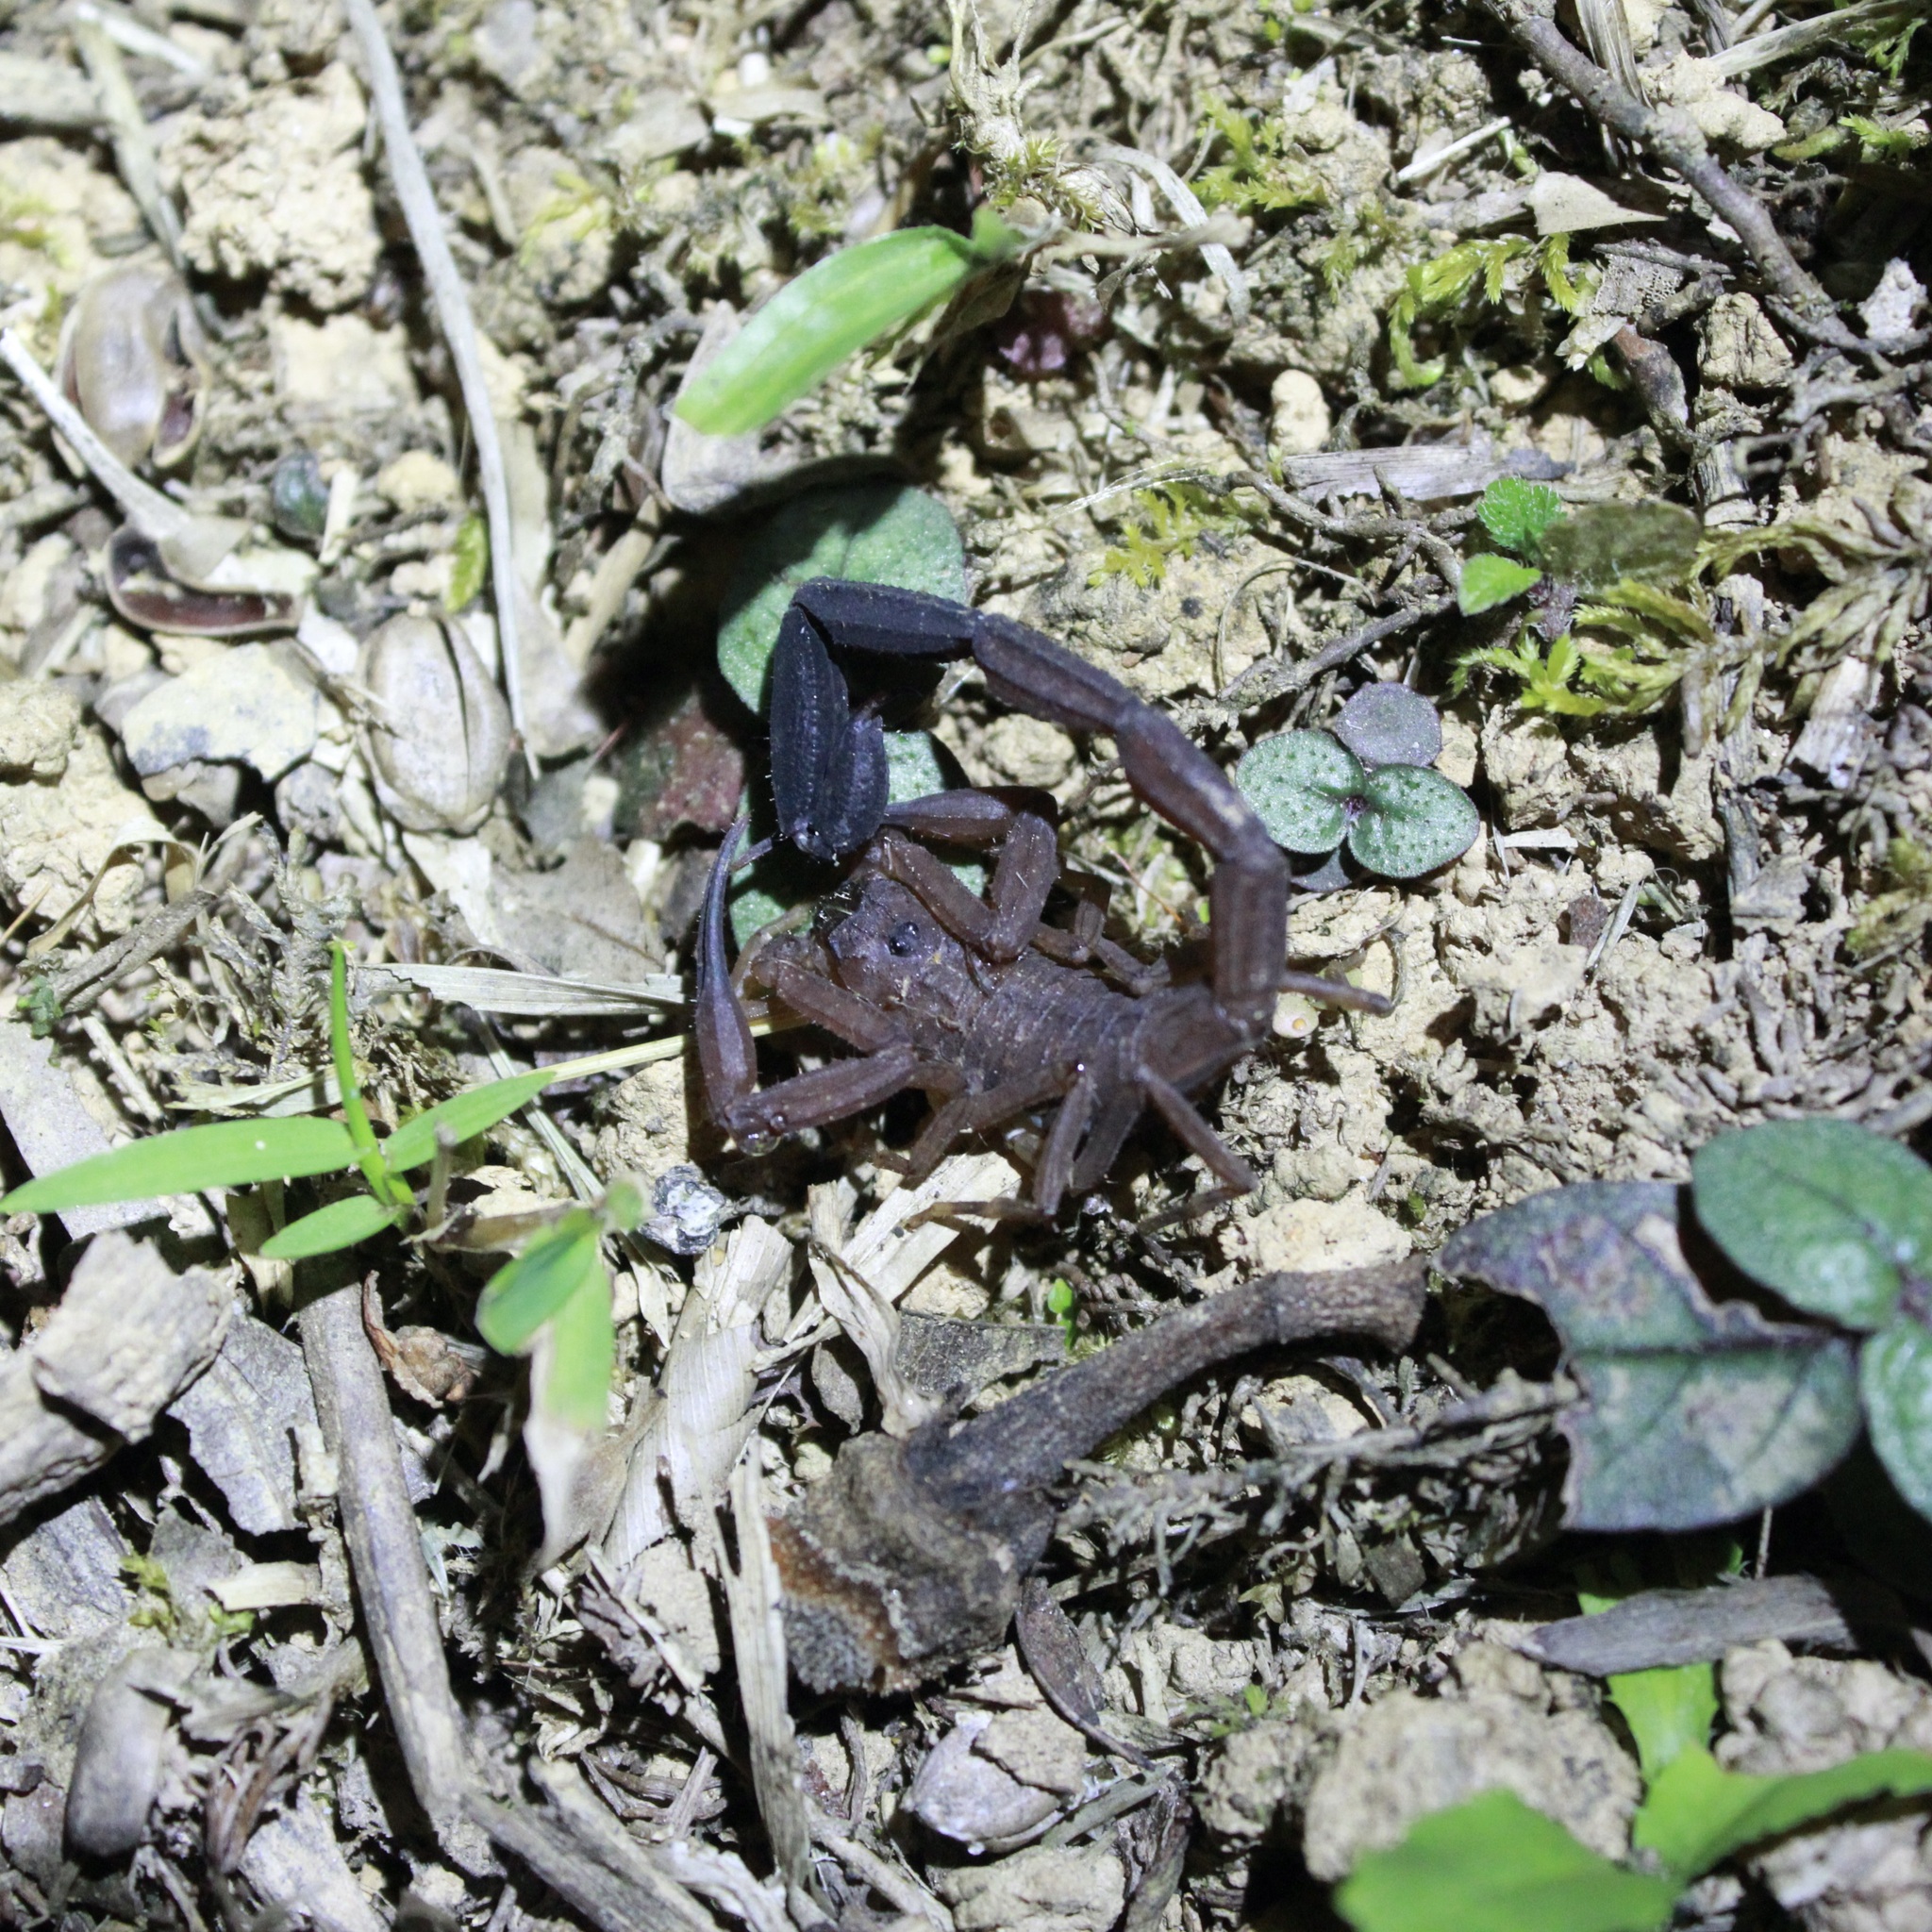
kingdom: Animalia
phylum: Arthropoda
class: Arachnida
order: Scorpiones
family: Buthidae
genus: Tityus
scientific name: Tityus trinitatis
